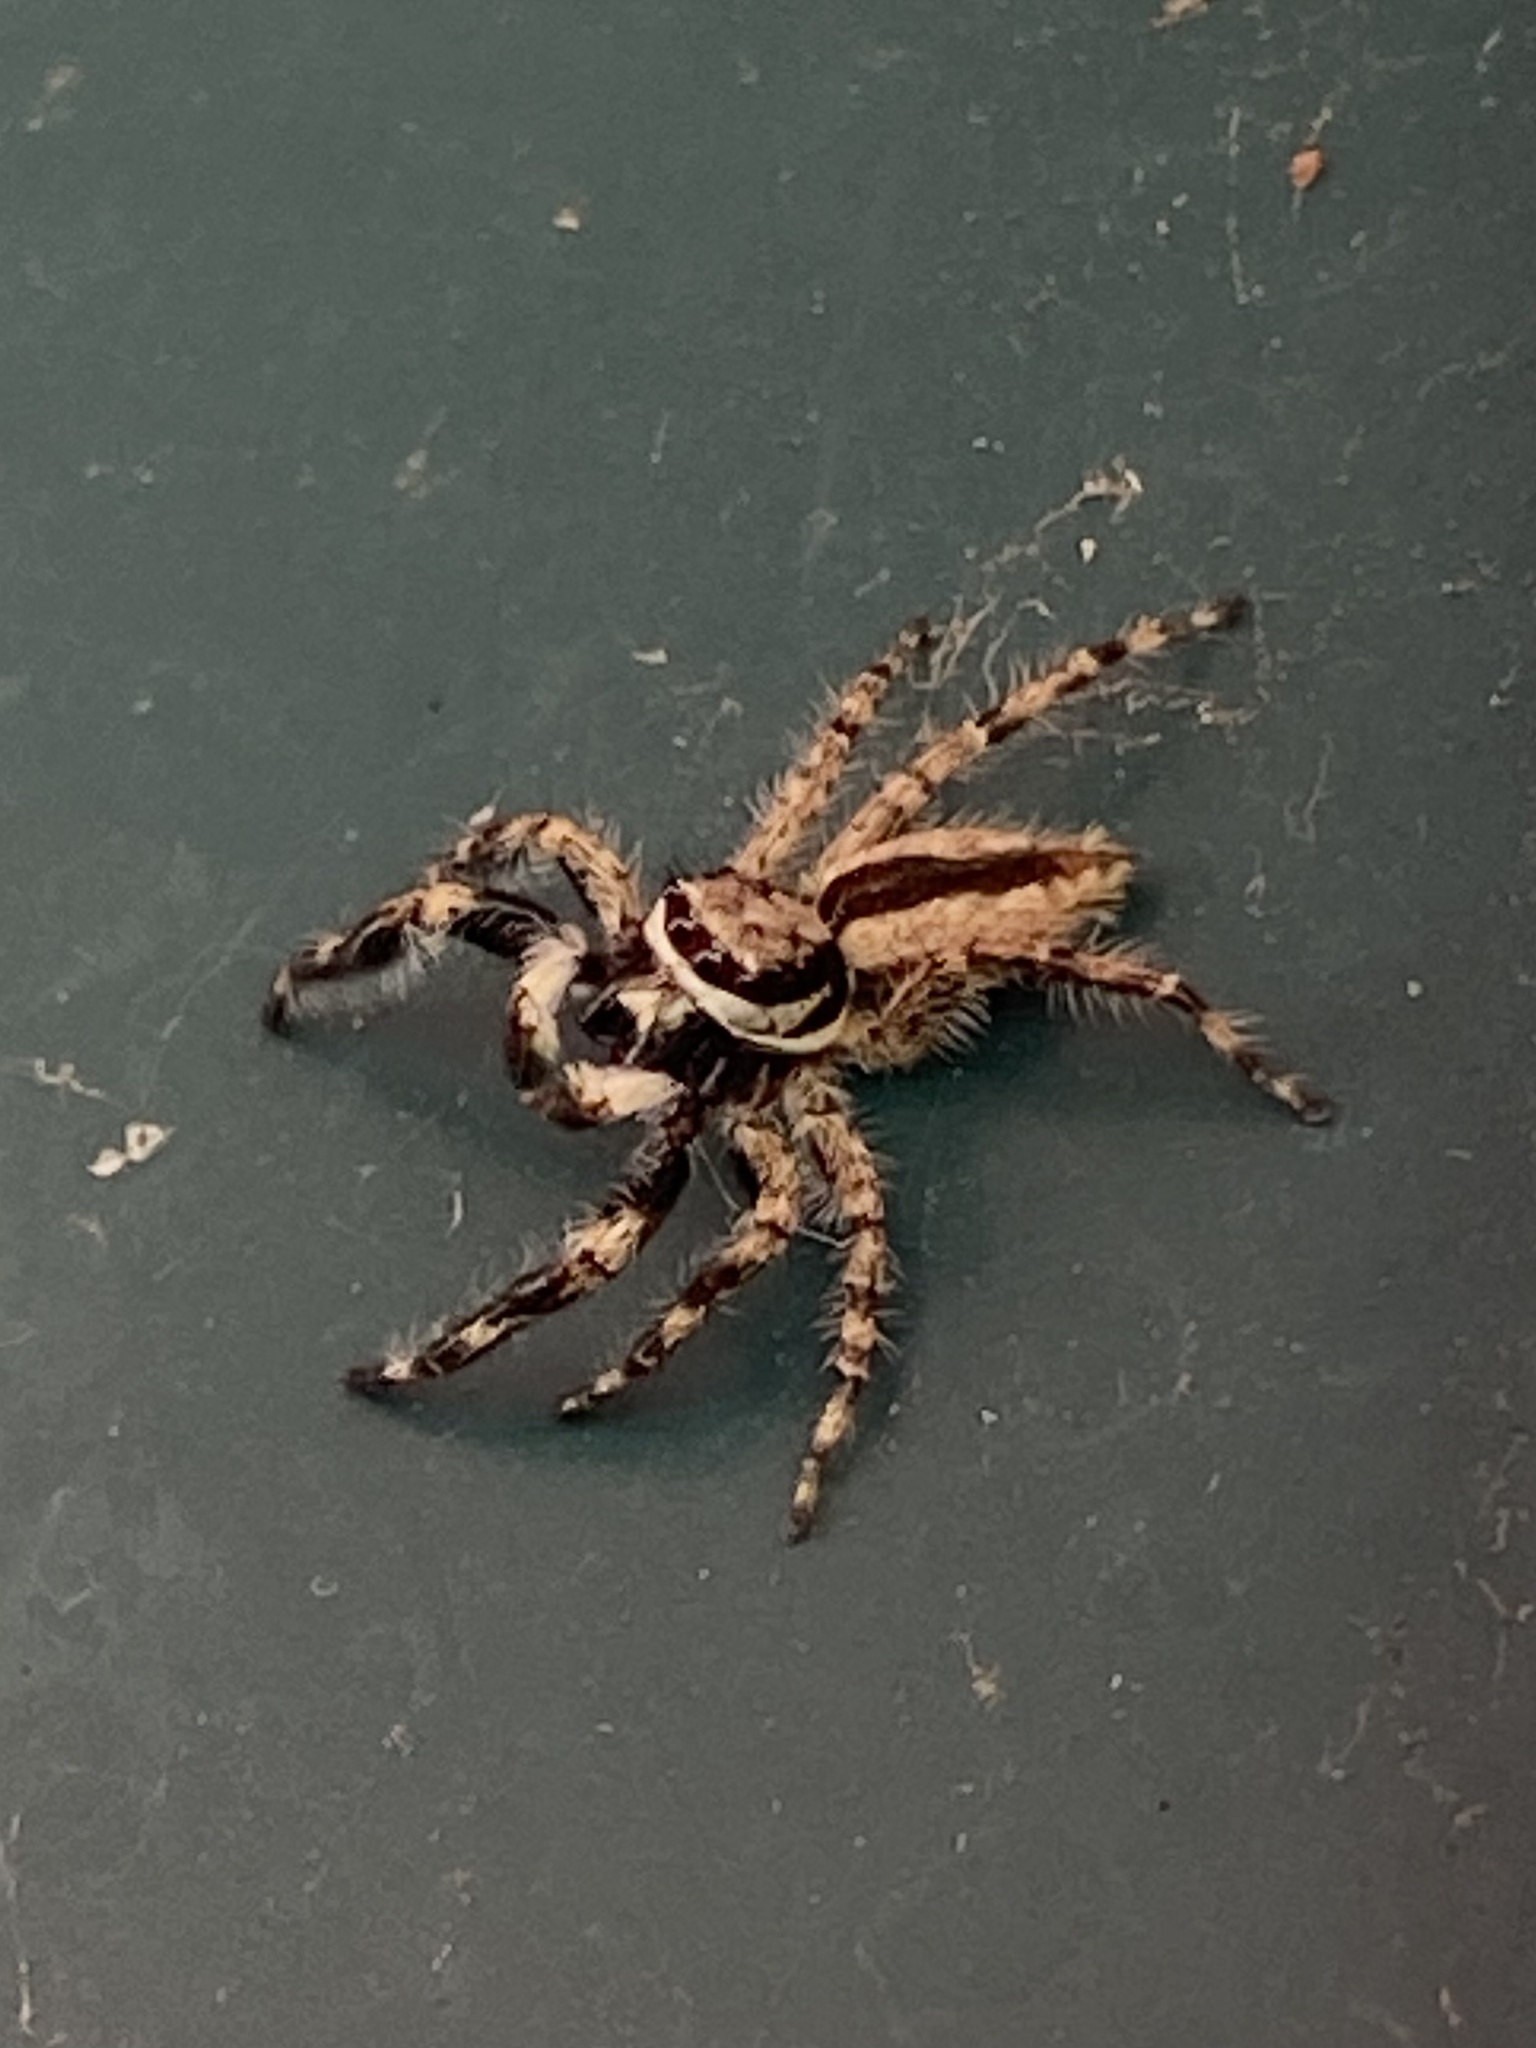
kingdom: Animalia
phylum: Arthropoda
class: Arachnida
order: Araneae
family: Salticidae
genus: Menemerus
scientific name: Menemerus bivittatus
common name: Gray wall jumper
